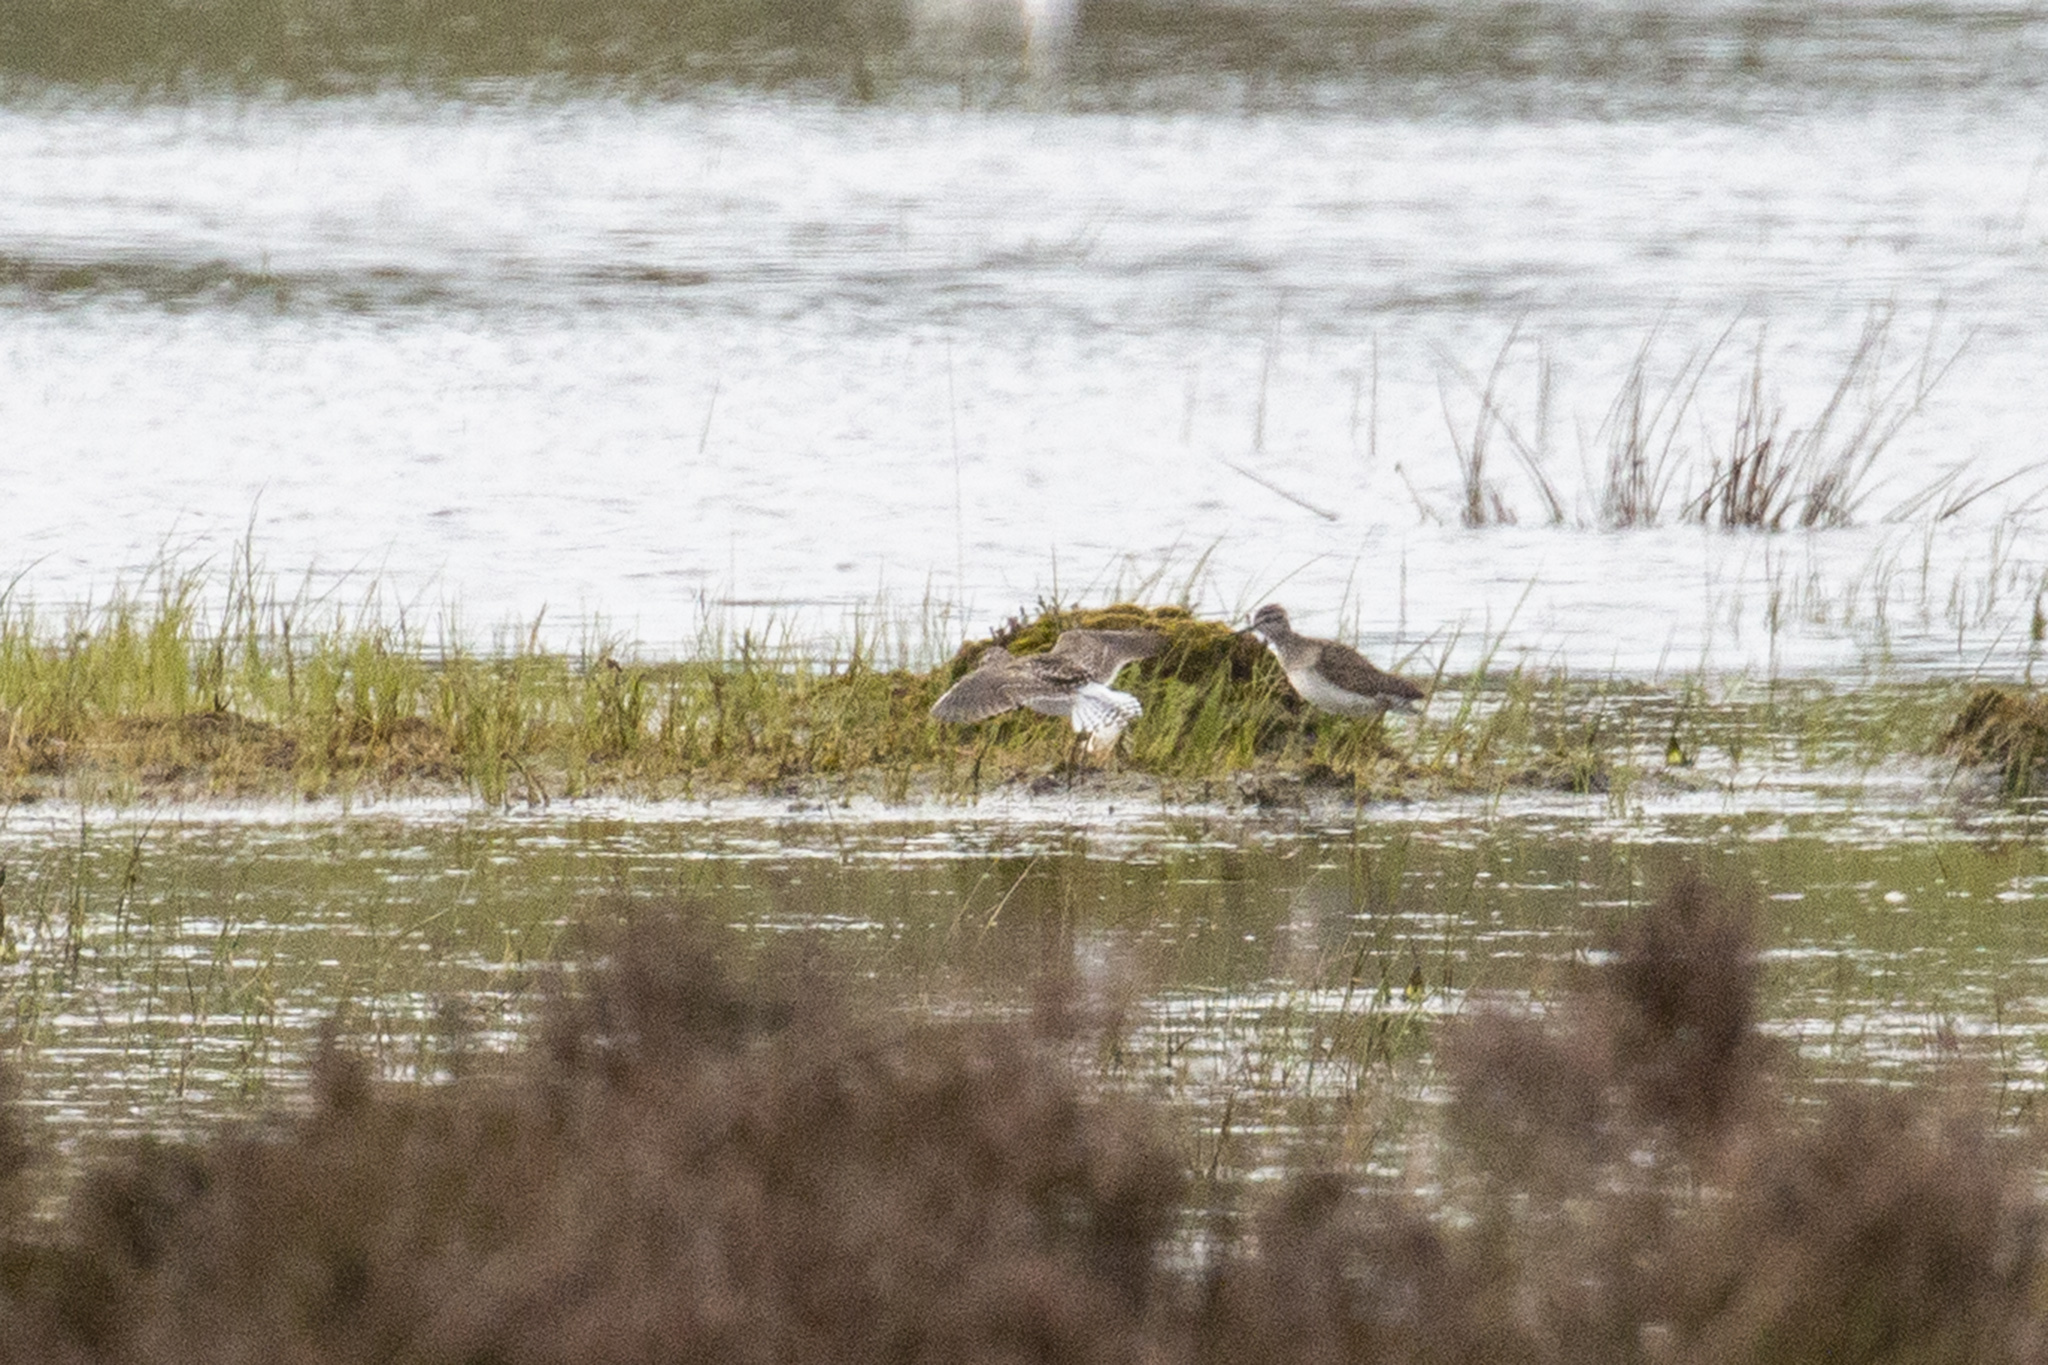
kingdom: Animalia
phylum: Chordata
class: Aves
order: Charadriiformes
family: Scolopacidae
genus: Tringa
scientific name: Tringa glareola
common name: Wood sandpiper
